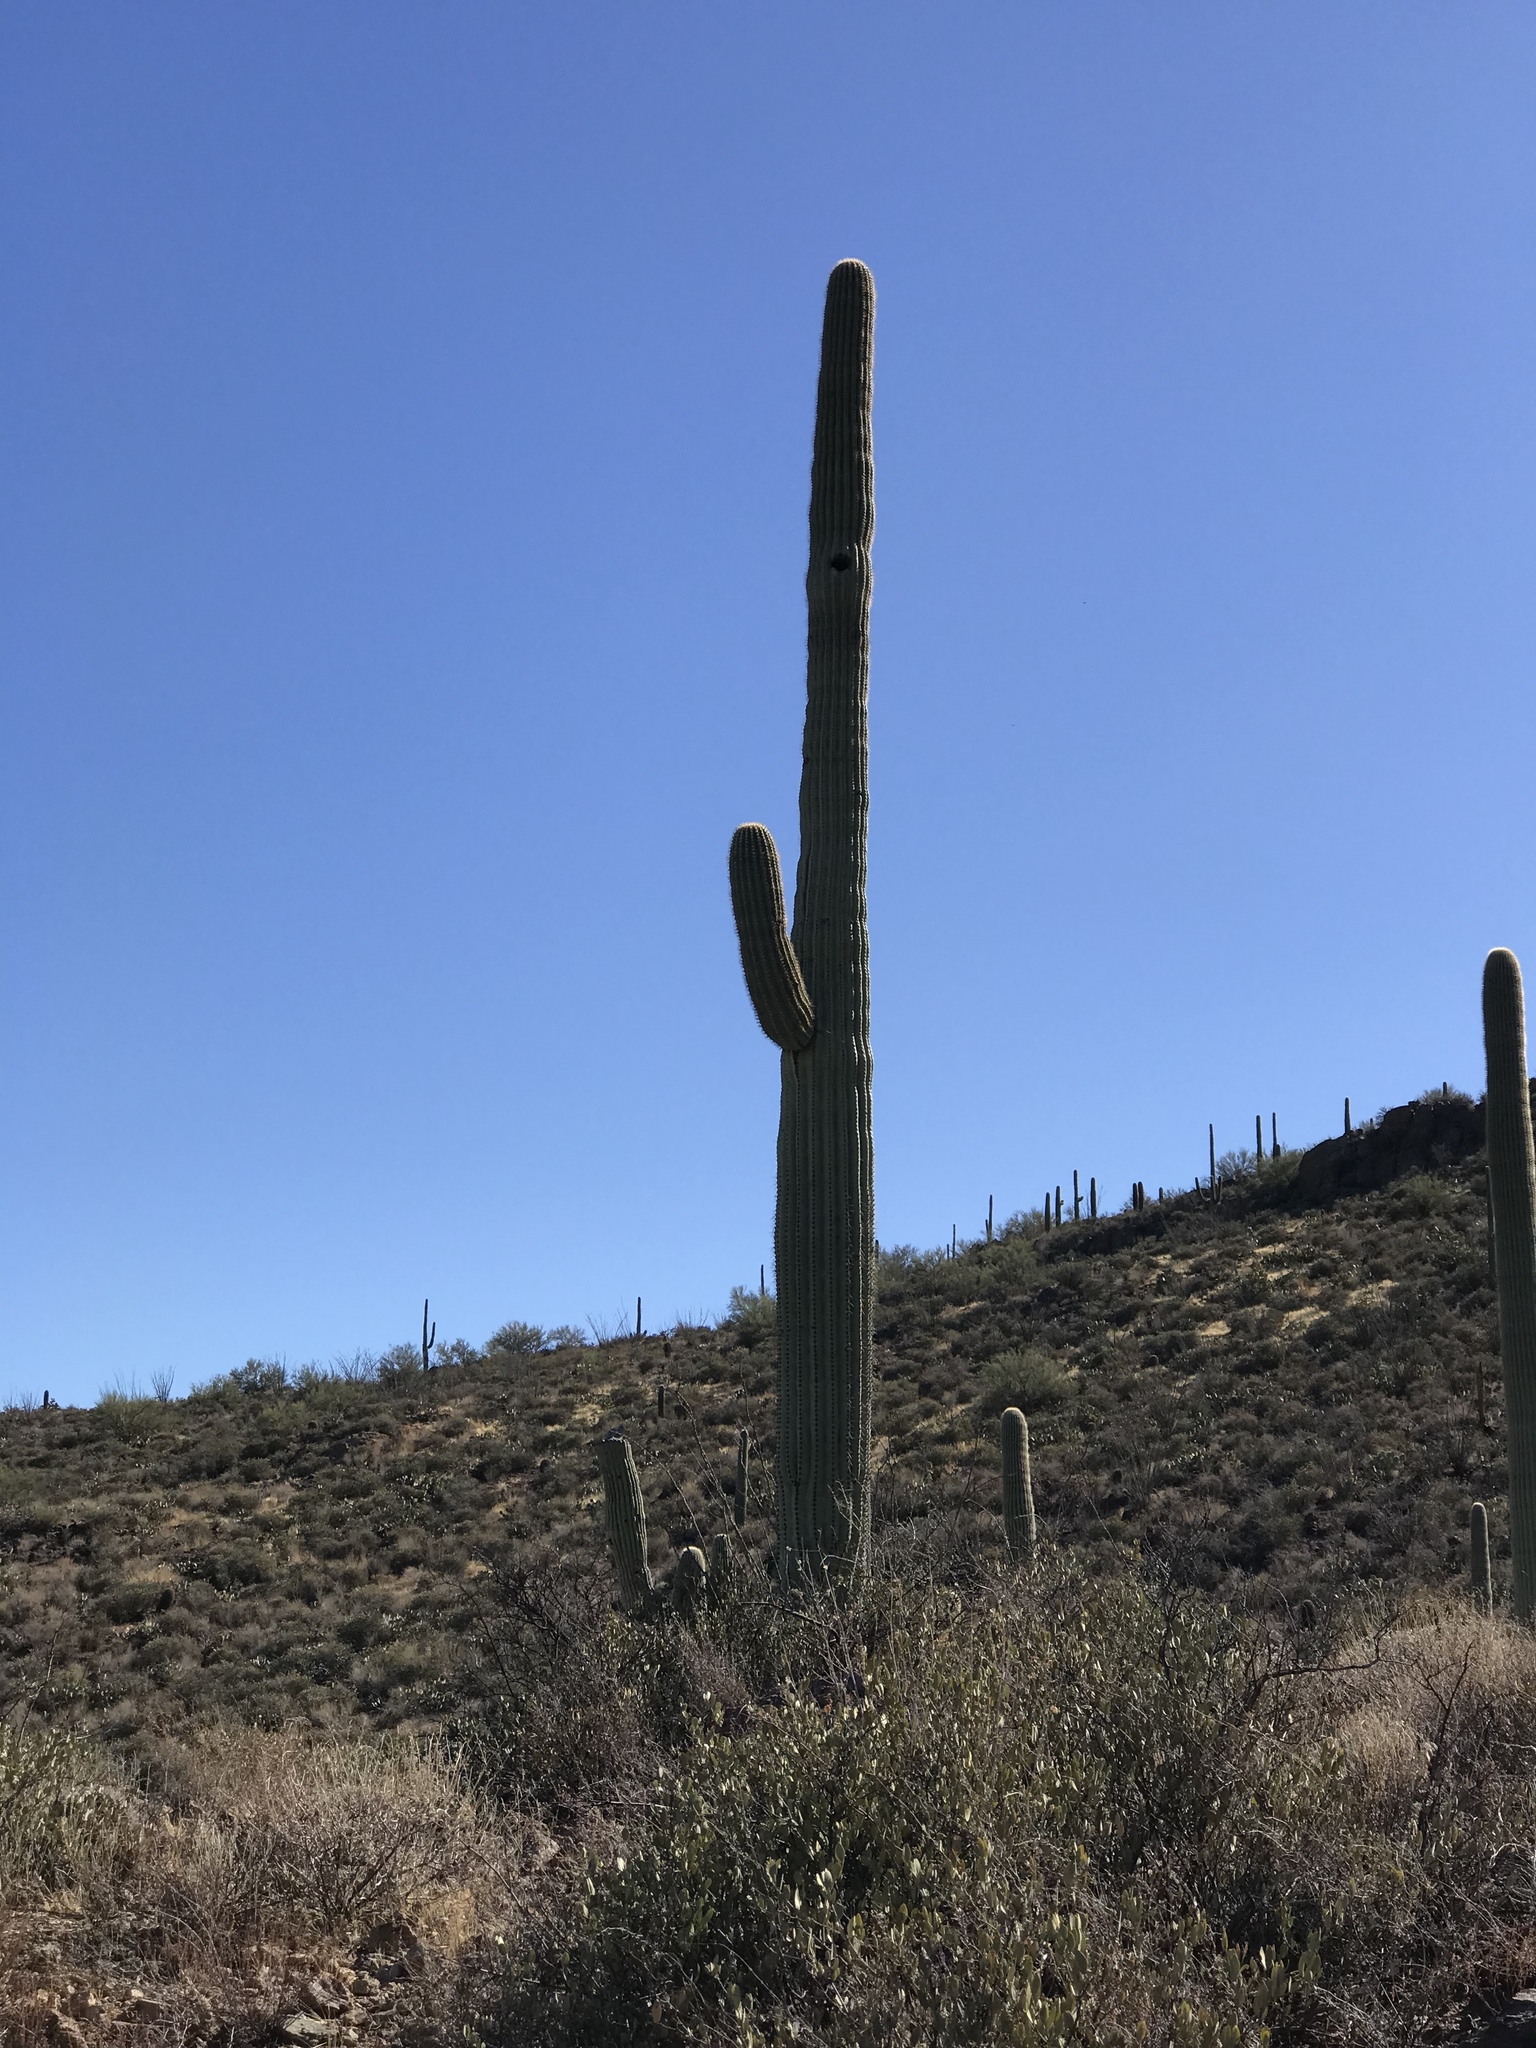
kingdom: Plantae
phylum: Tracheophyta
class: Magnoliopsida
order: Caryophyllales
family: Cactaceae
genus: Carnegiea
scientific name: Carnegiea gigantea
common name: Saguaro
